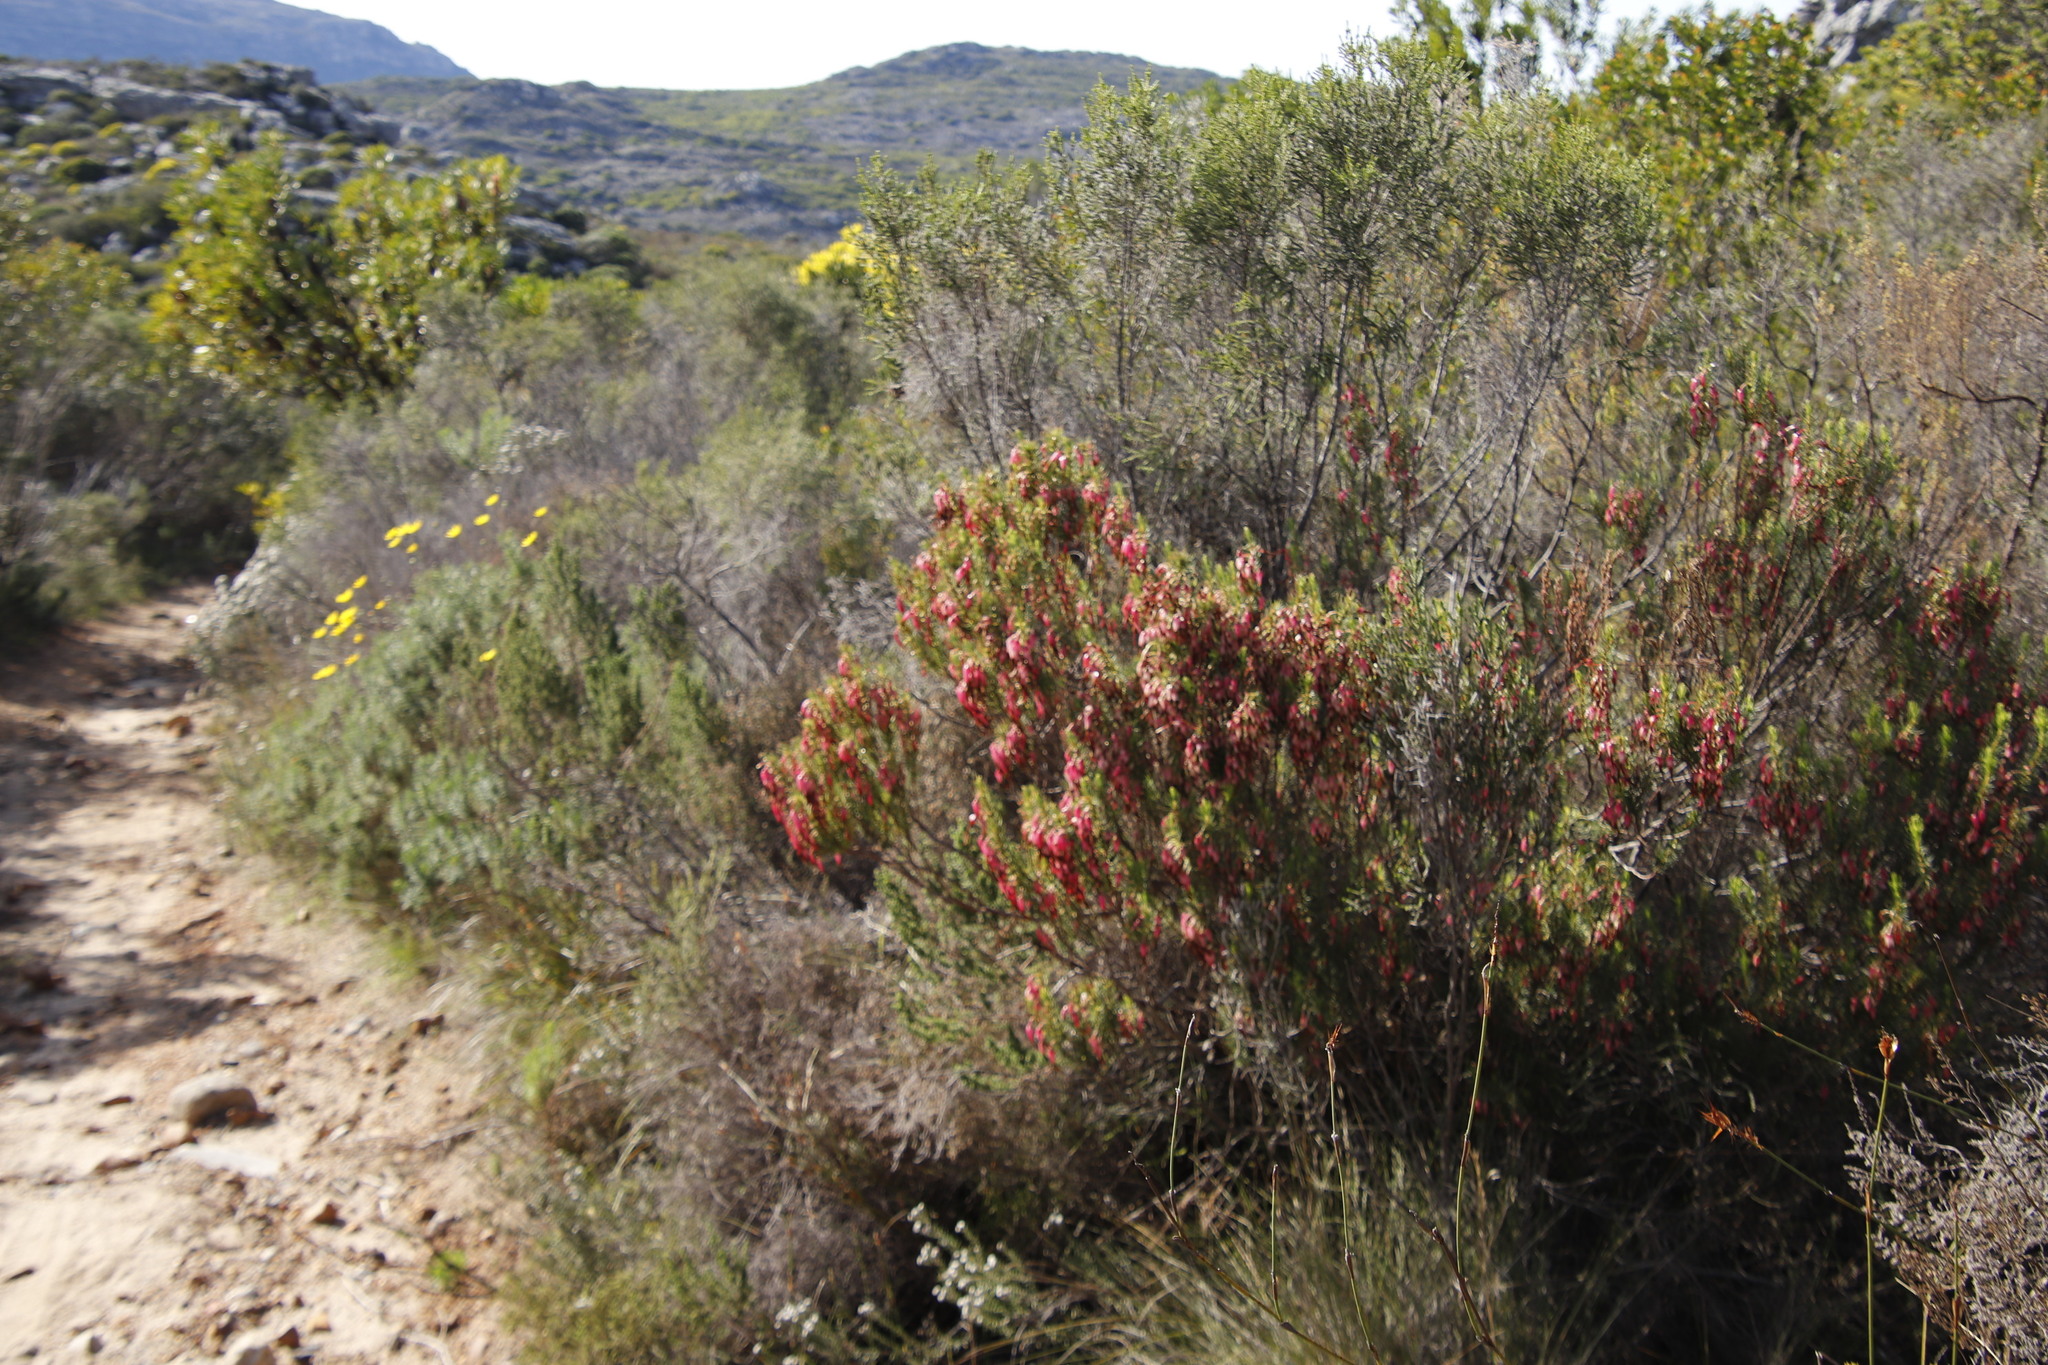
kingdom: Plantae
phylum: Tracheophyta
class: Magnoliopsida
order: Ericales
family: Ericaceae
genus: Erica
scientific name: Erica plukenetii
